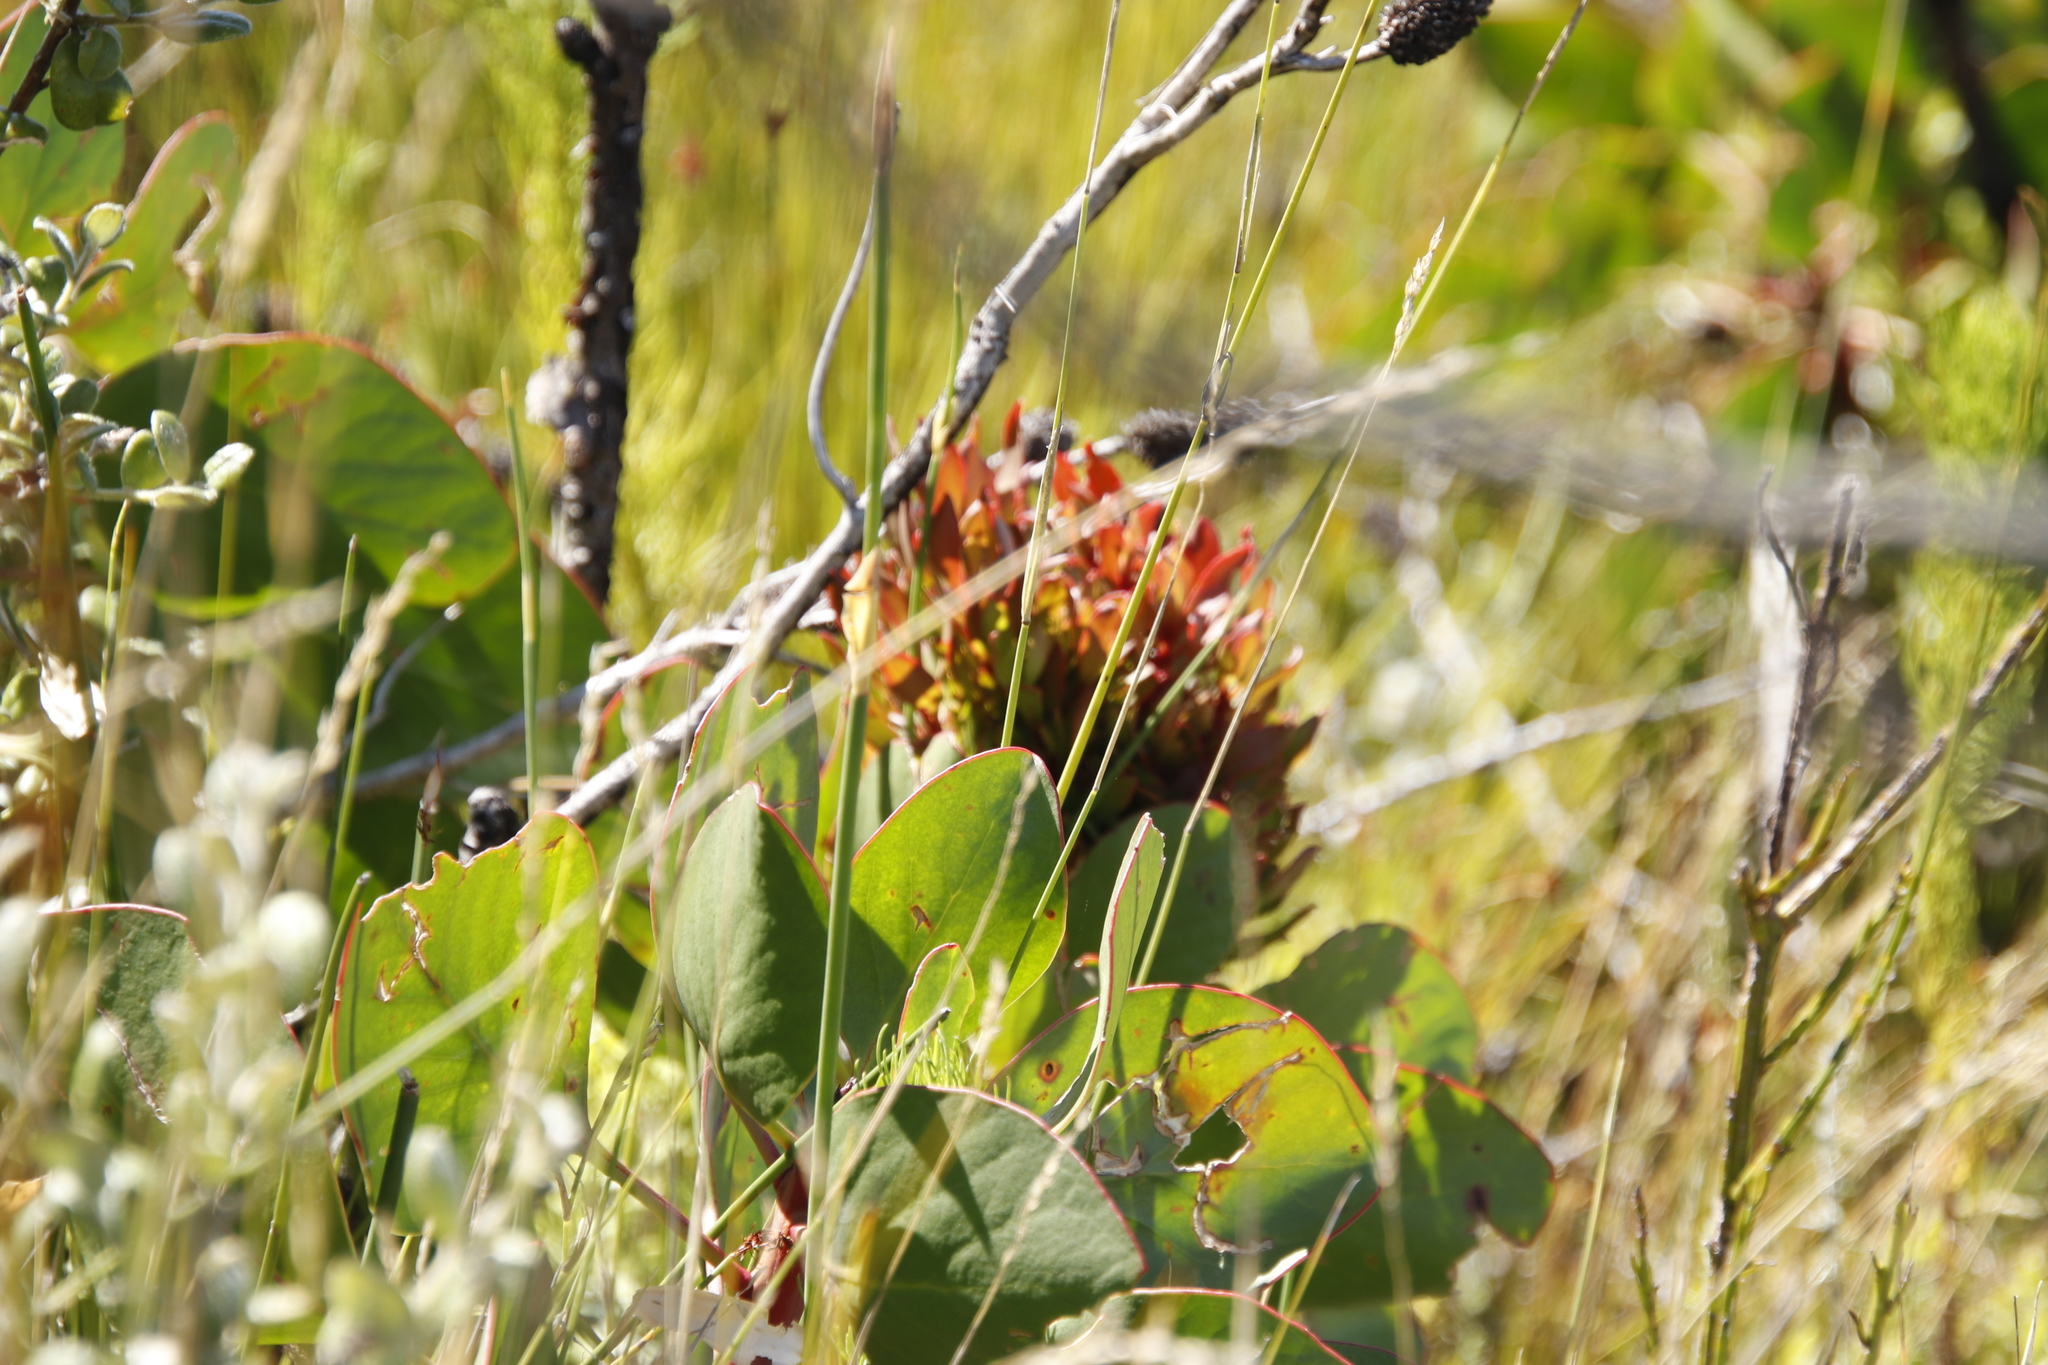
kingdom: Plantae
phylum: Tracheophyta
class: Magnoliopsida
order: Proteales
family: Proteaceae
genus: Protea
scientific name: Protea cynaroides
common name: King protea
